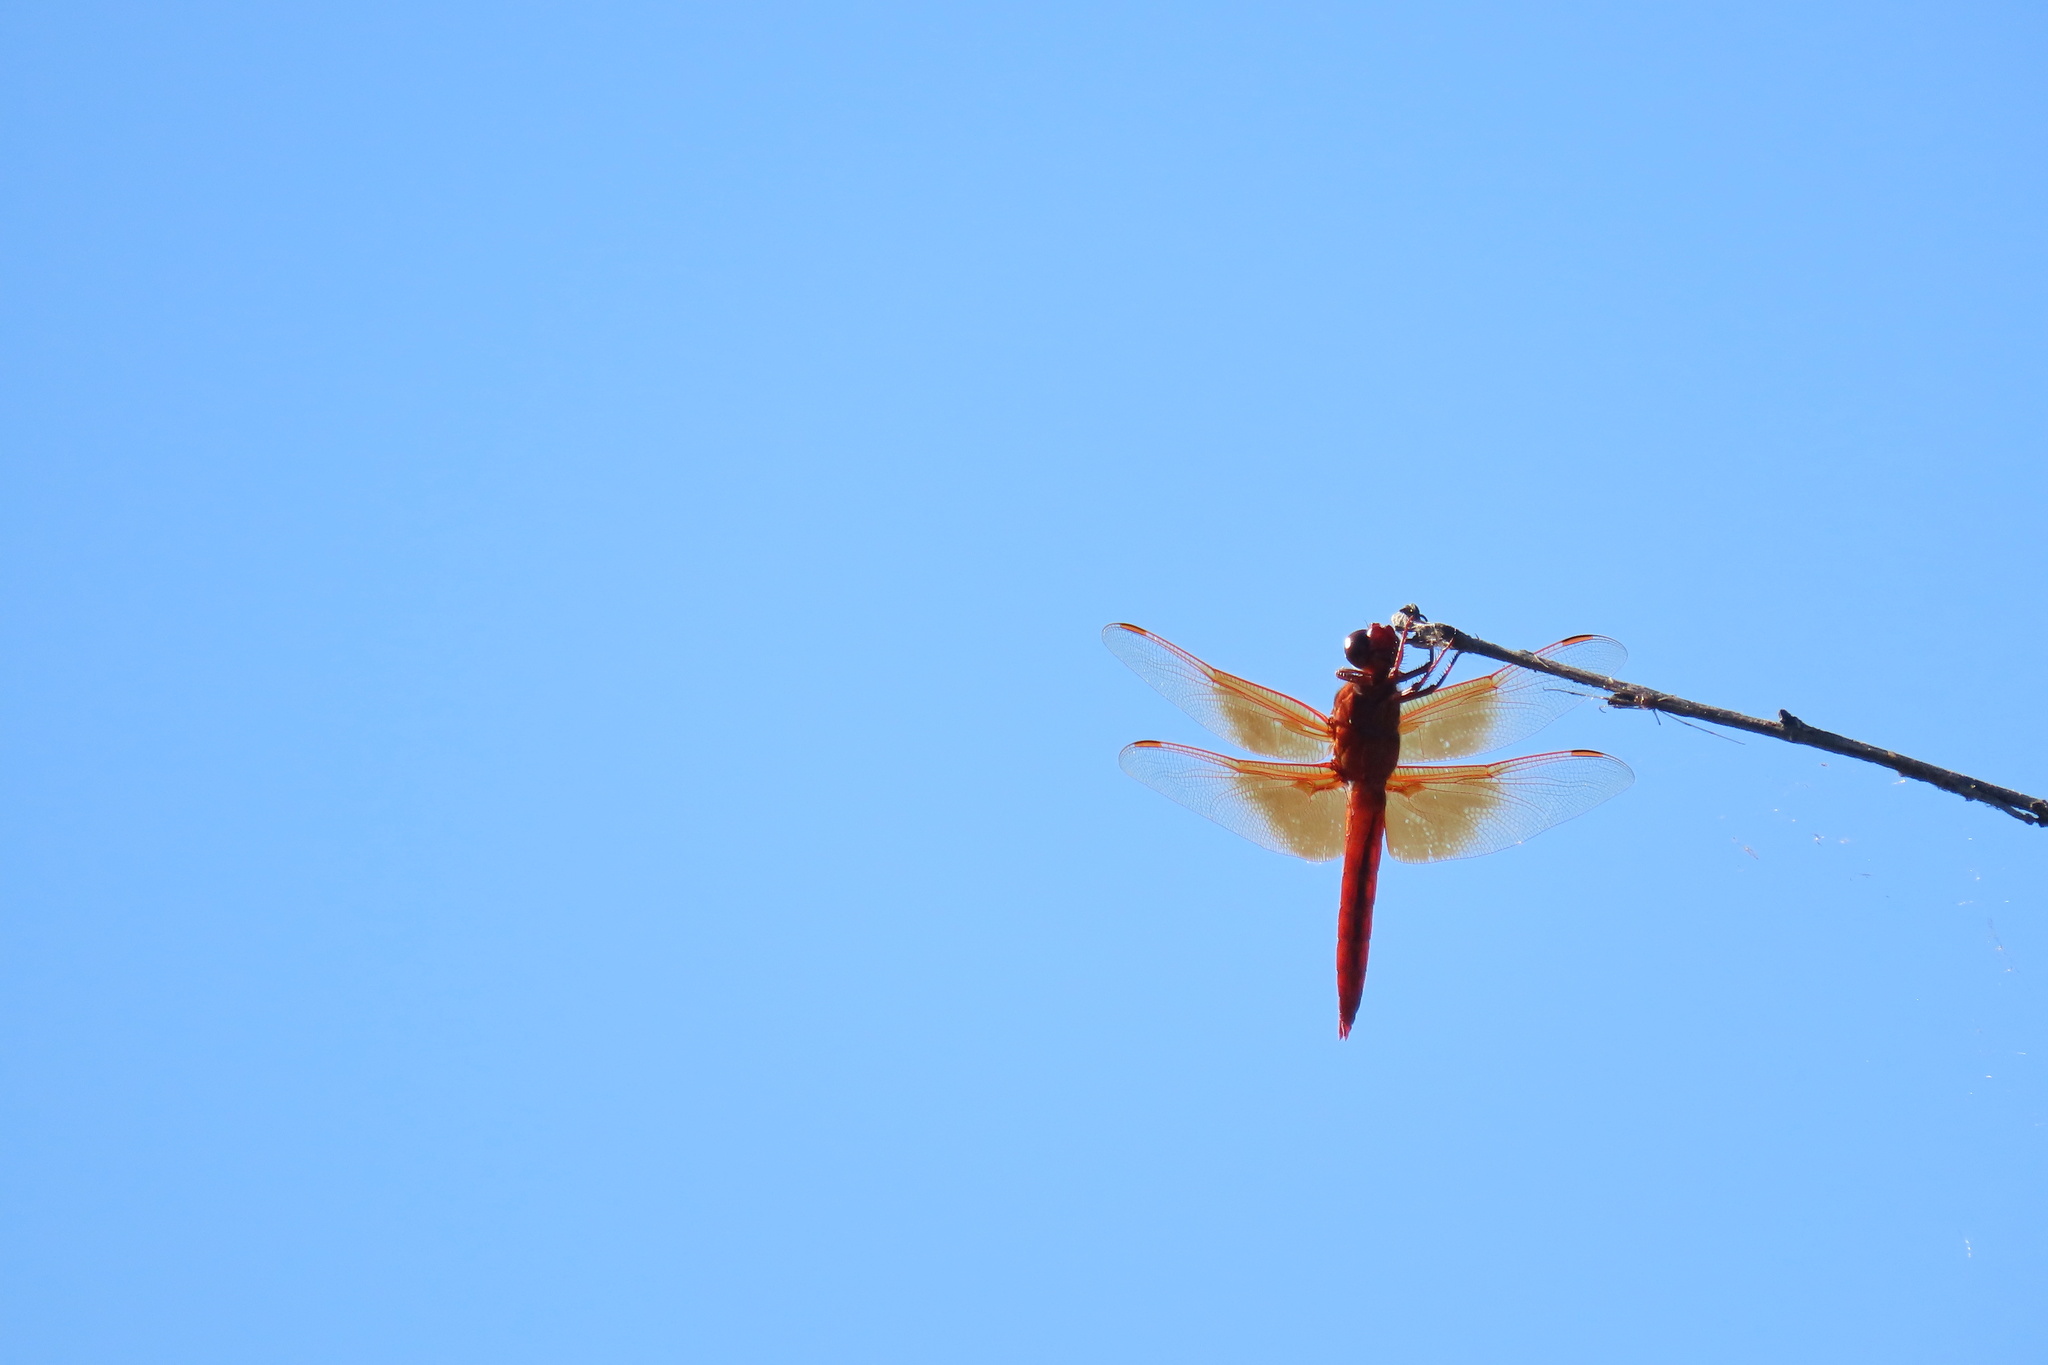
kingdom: Animalia
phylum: Arthropoda
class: Insecta
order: Odonata
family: Libellulidae
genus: Libellula
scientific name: Libellula saturata
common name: Flame skimmer
